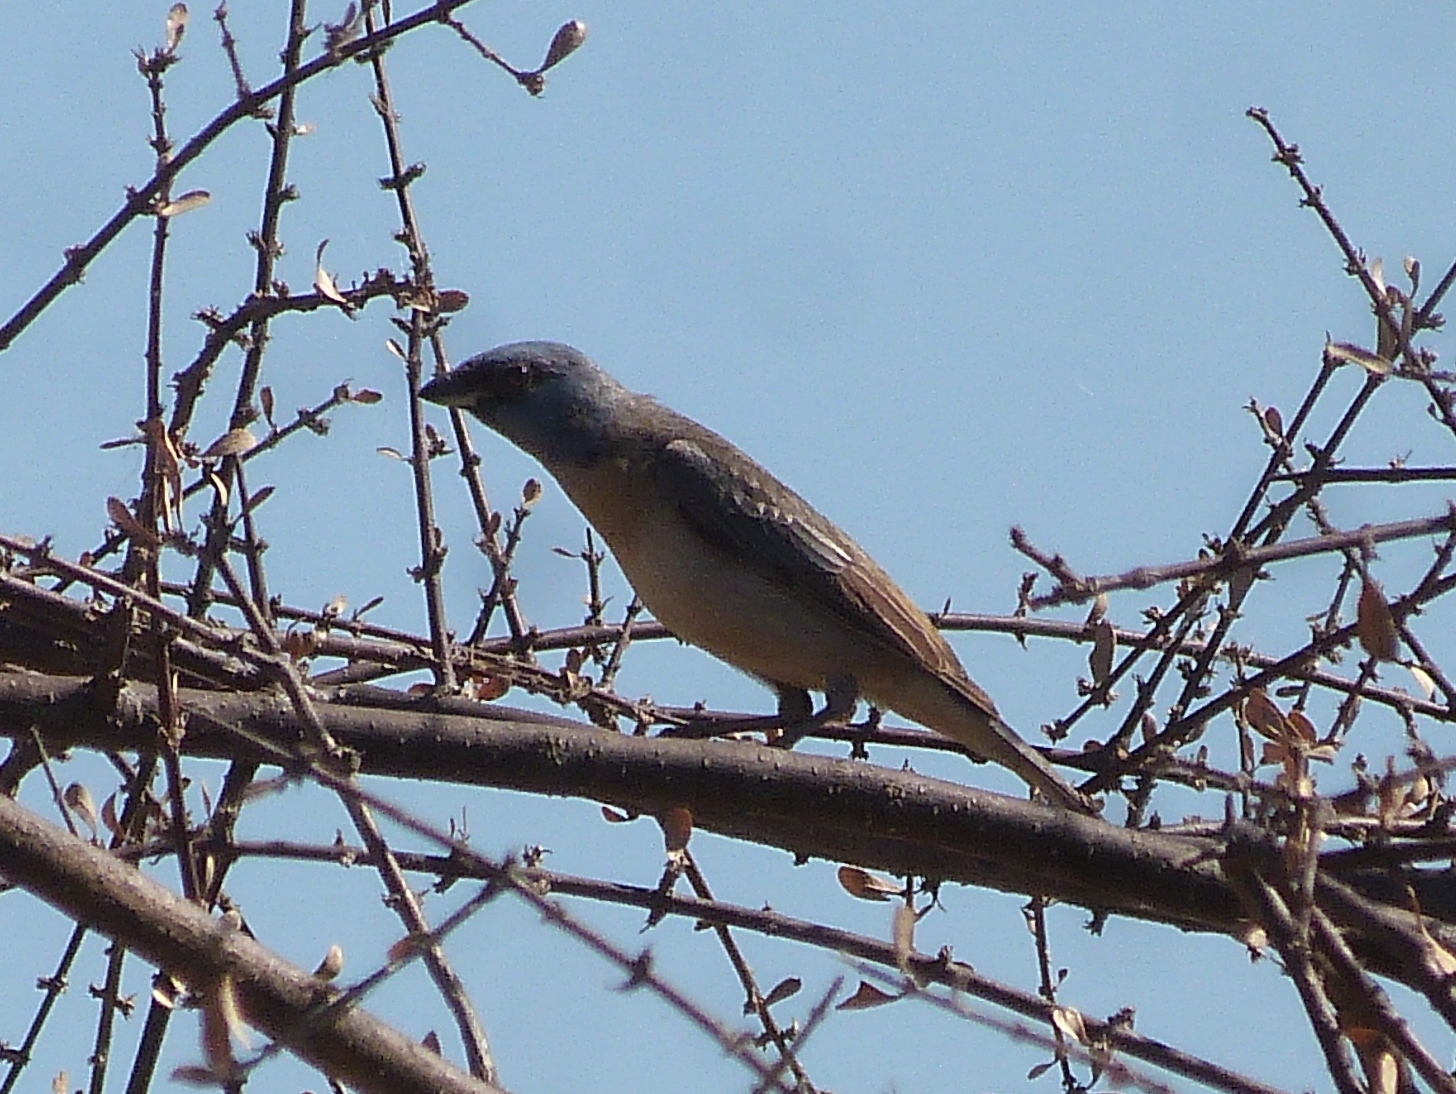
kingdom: Animalia
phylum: Chordata
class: Aves
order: Passeriformes
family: Thraupidae
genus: Rauenia
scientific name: Rauenia bonariensis
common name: Blue-and-yellow tanager
